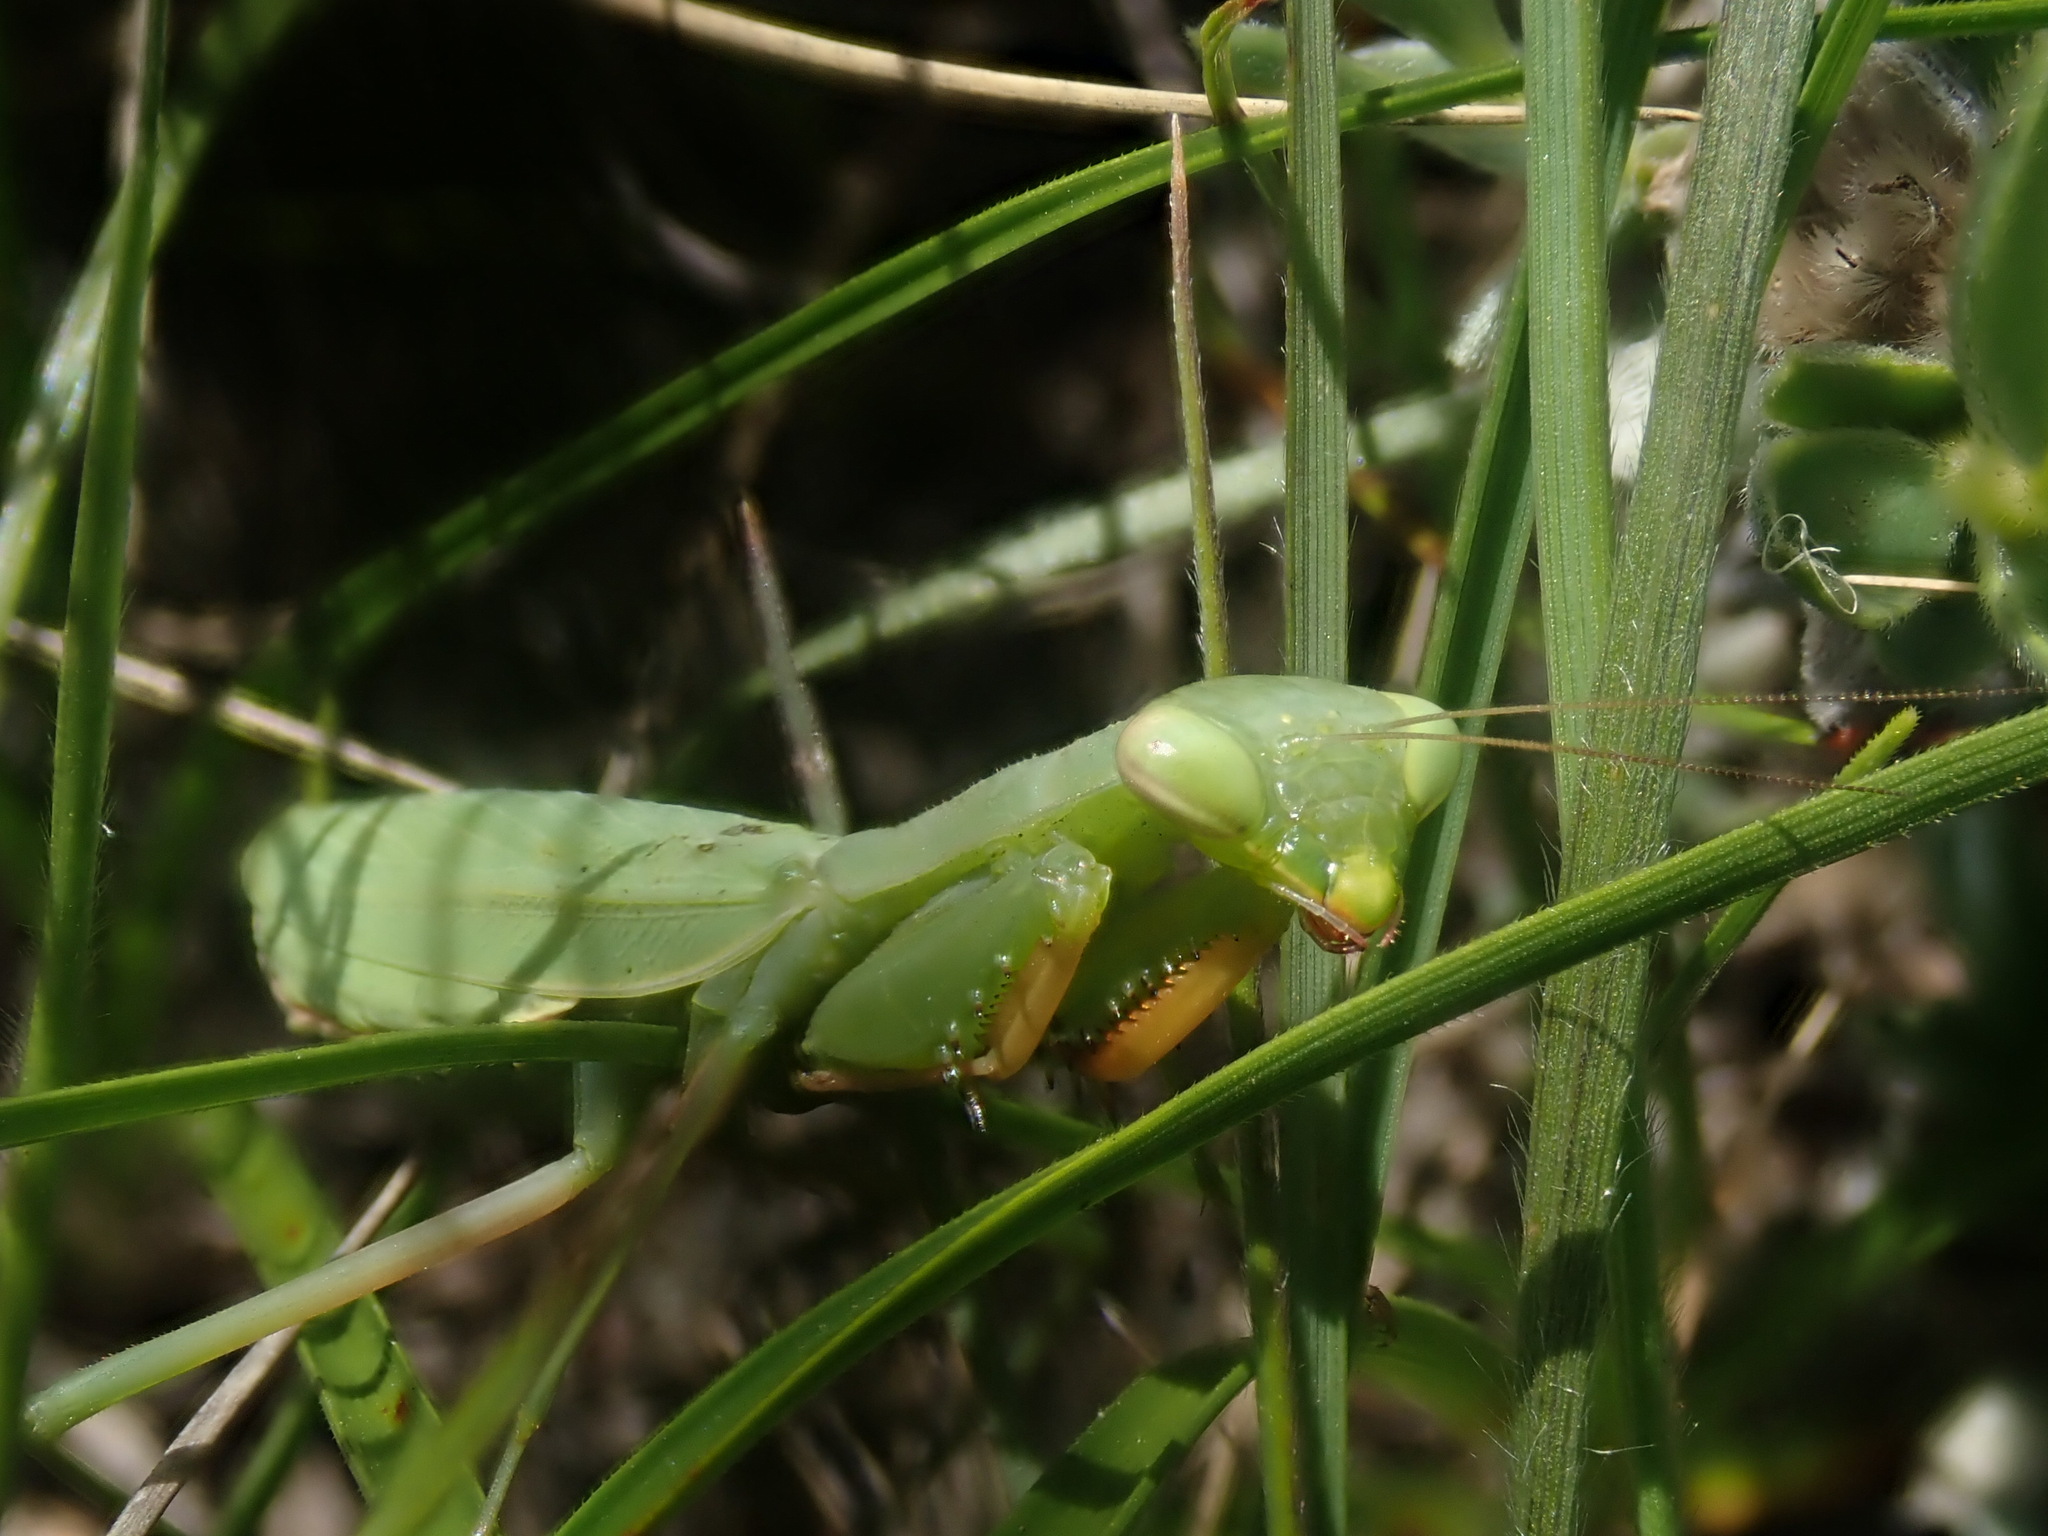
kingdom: Animalia
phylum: Arthropoda
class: Insecta
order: Mantodea
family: Miomantidae
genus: Miomantis
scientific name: Miomantis caffra
